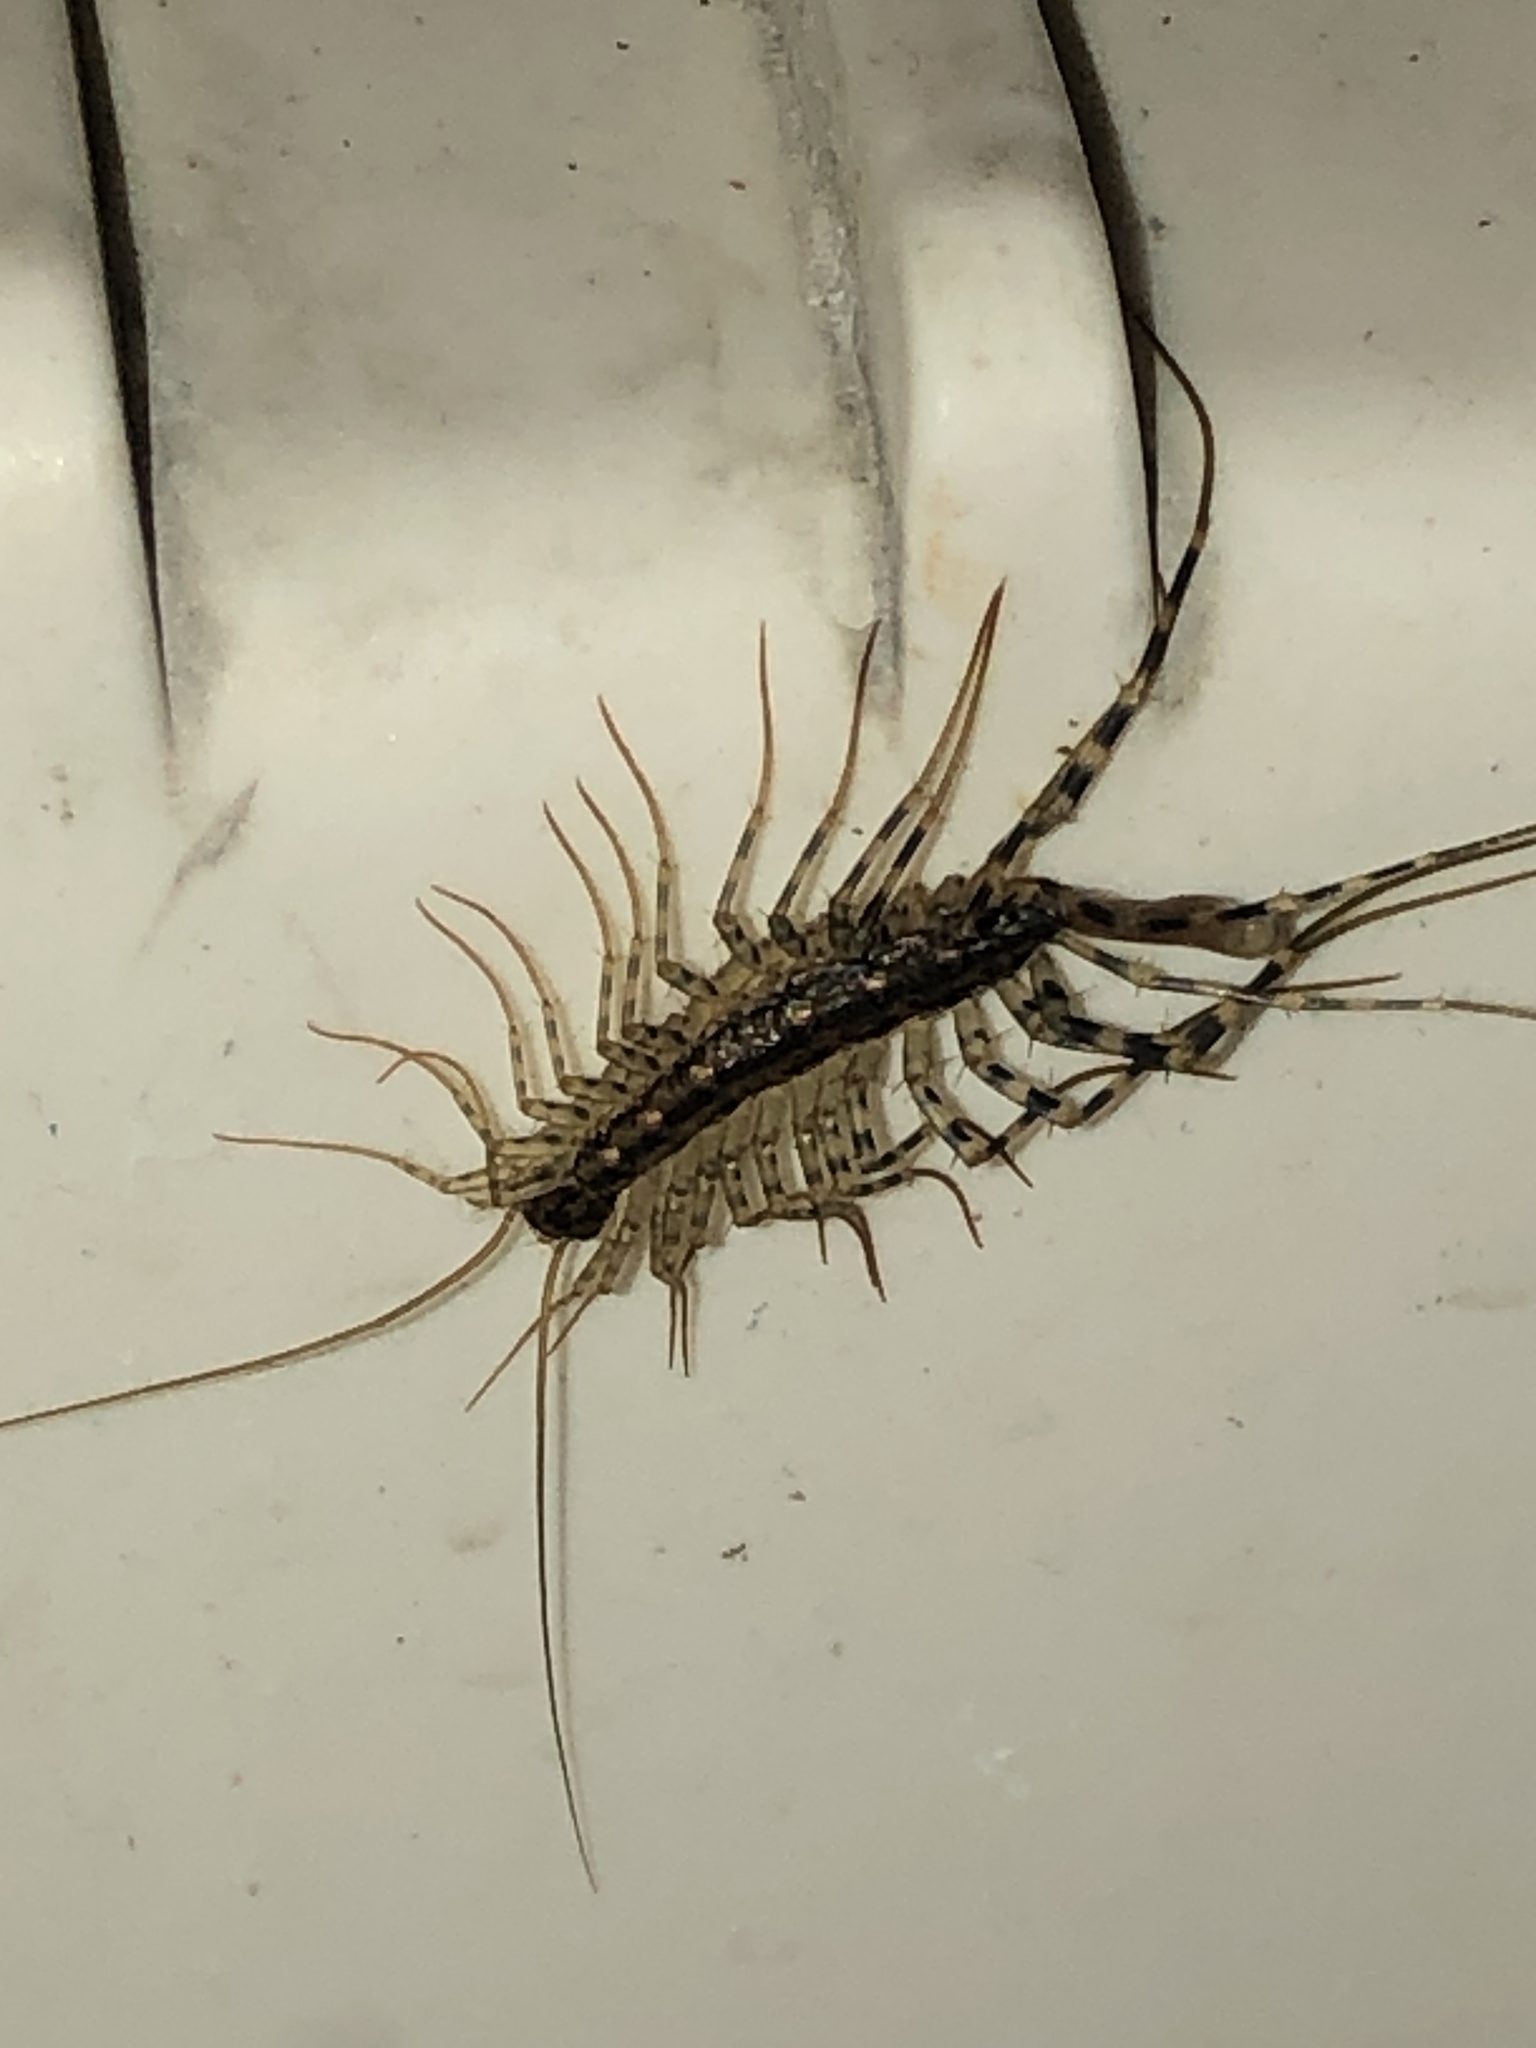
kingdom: Animalia
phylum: Arthropoda
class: Chilopoda
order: Scutigeromorpha
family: Scutigeridae
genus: Scutigera
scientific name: Scutigera coleoptrata
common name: House centipede
